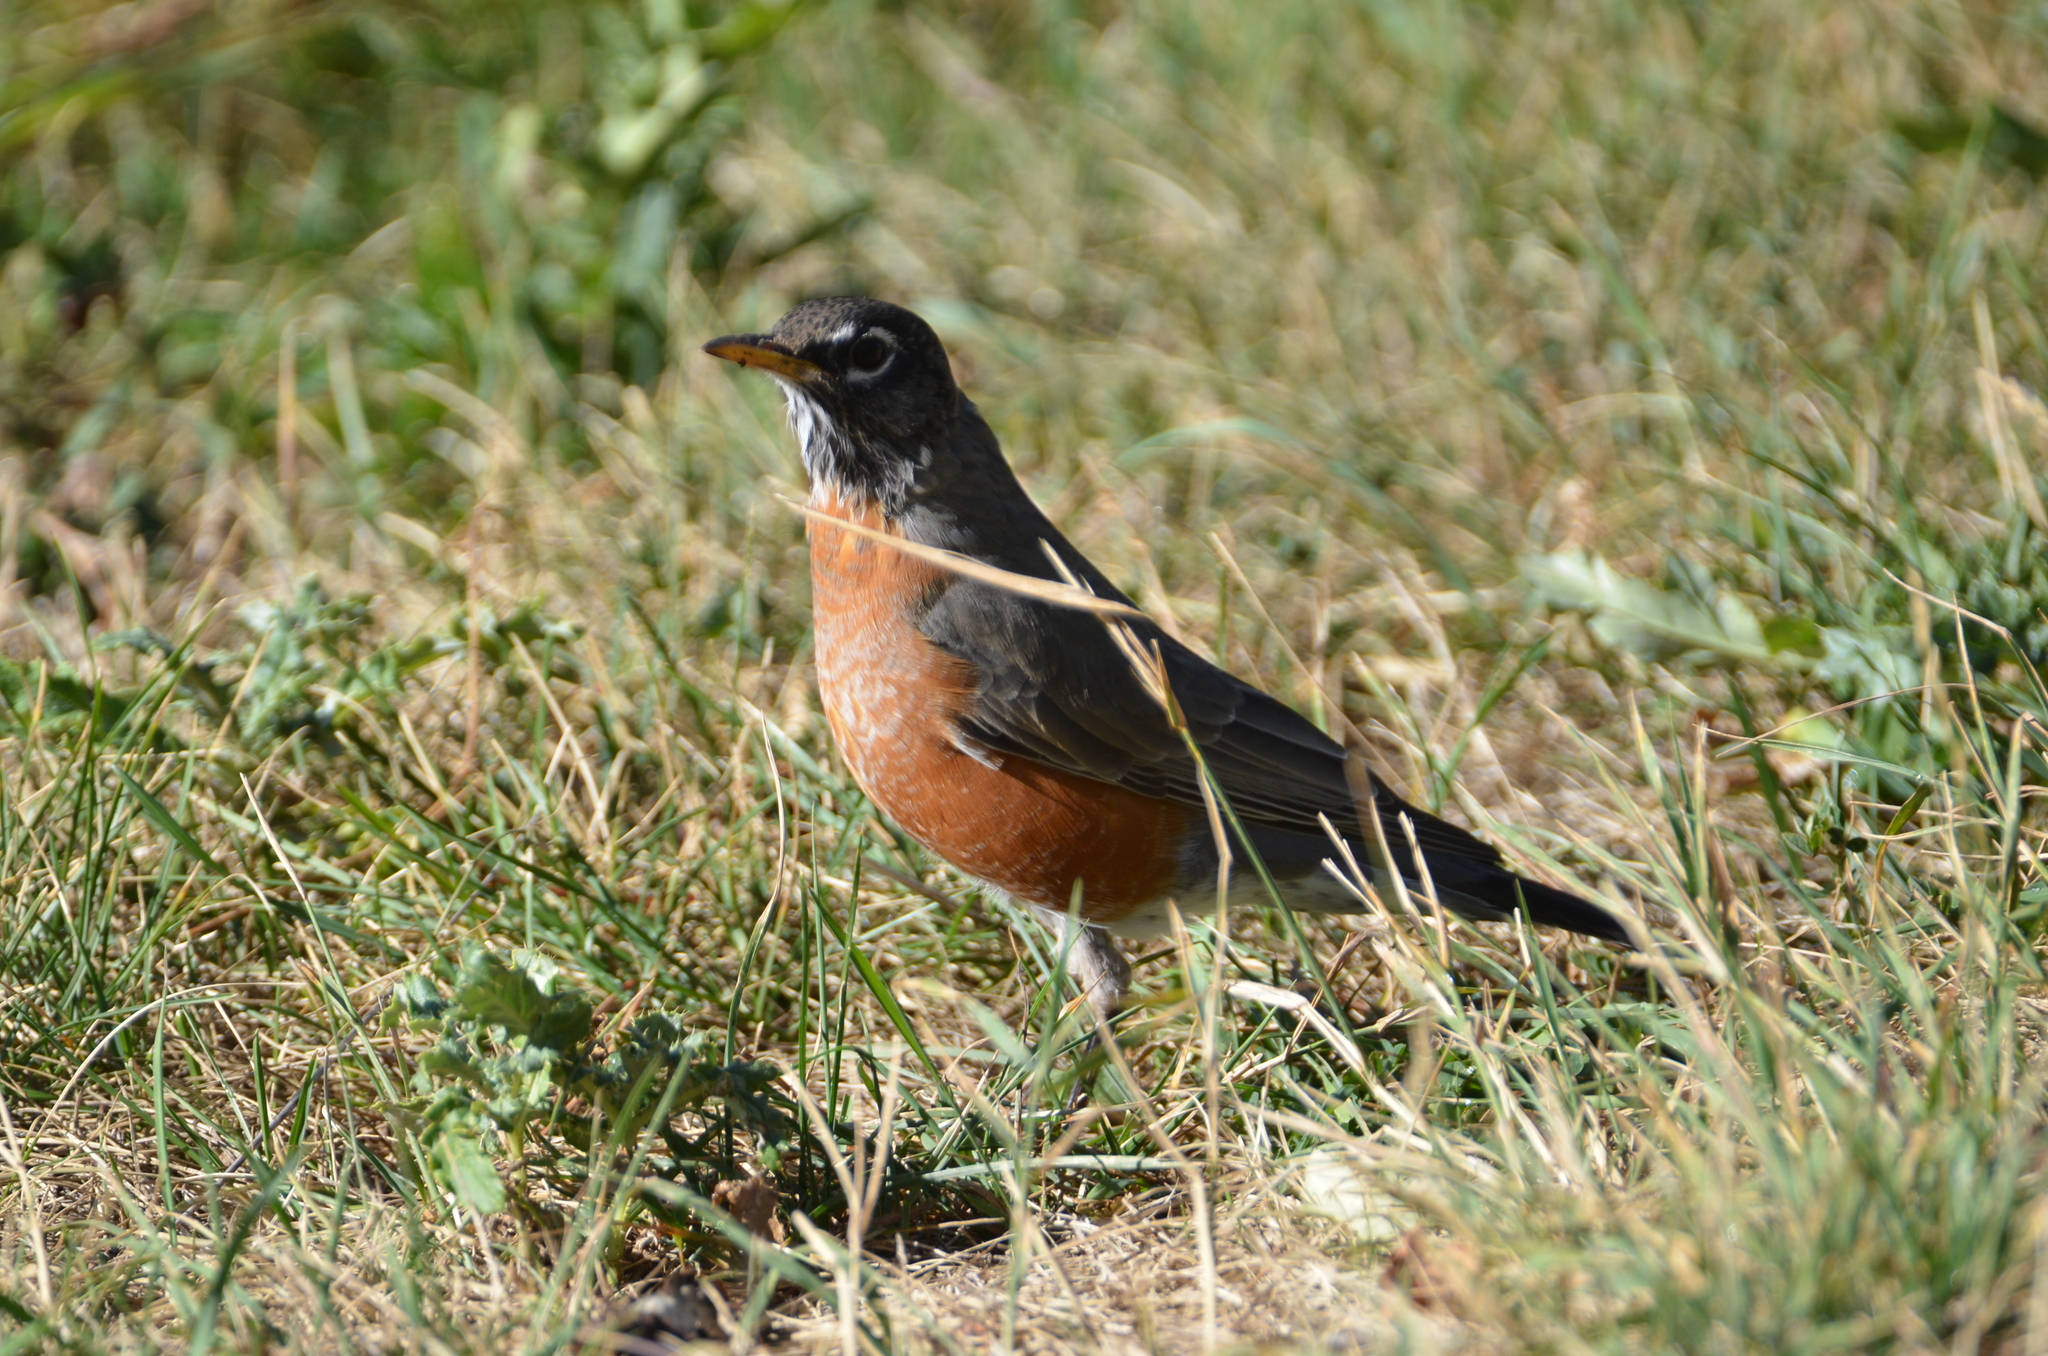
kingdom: Animalia
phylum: Chordata
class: Aves
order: Passeriformes
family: Turdidae
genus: Turdus
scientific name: Turdus migratorius
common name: American robin
